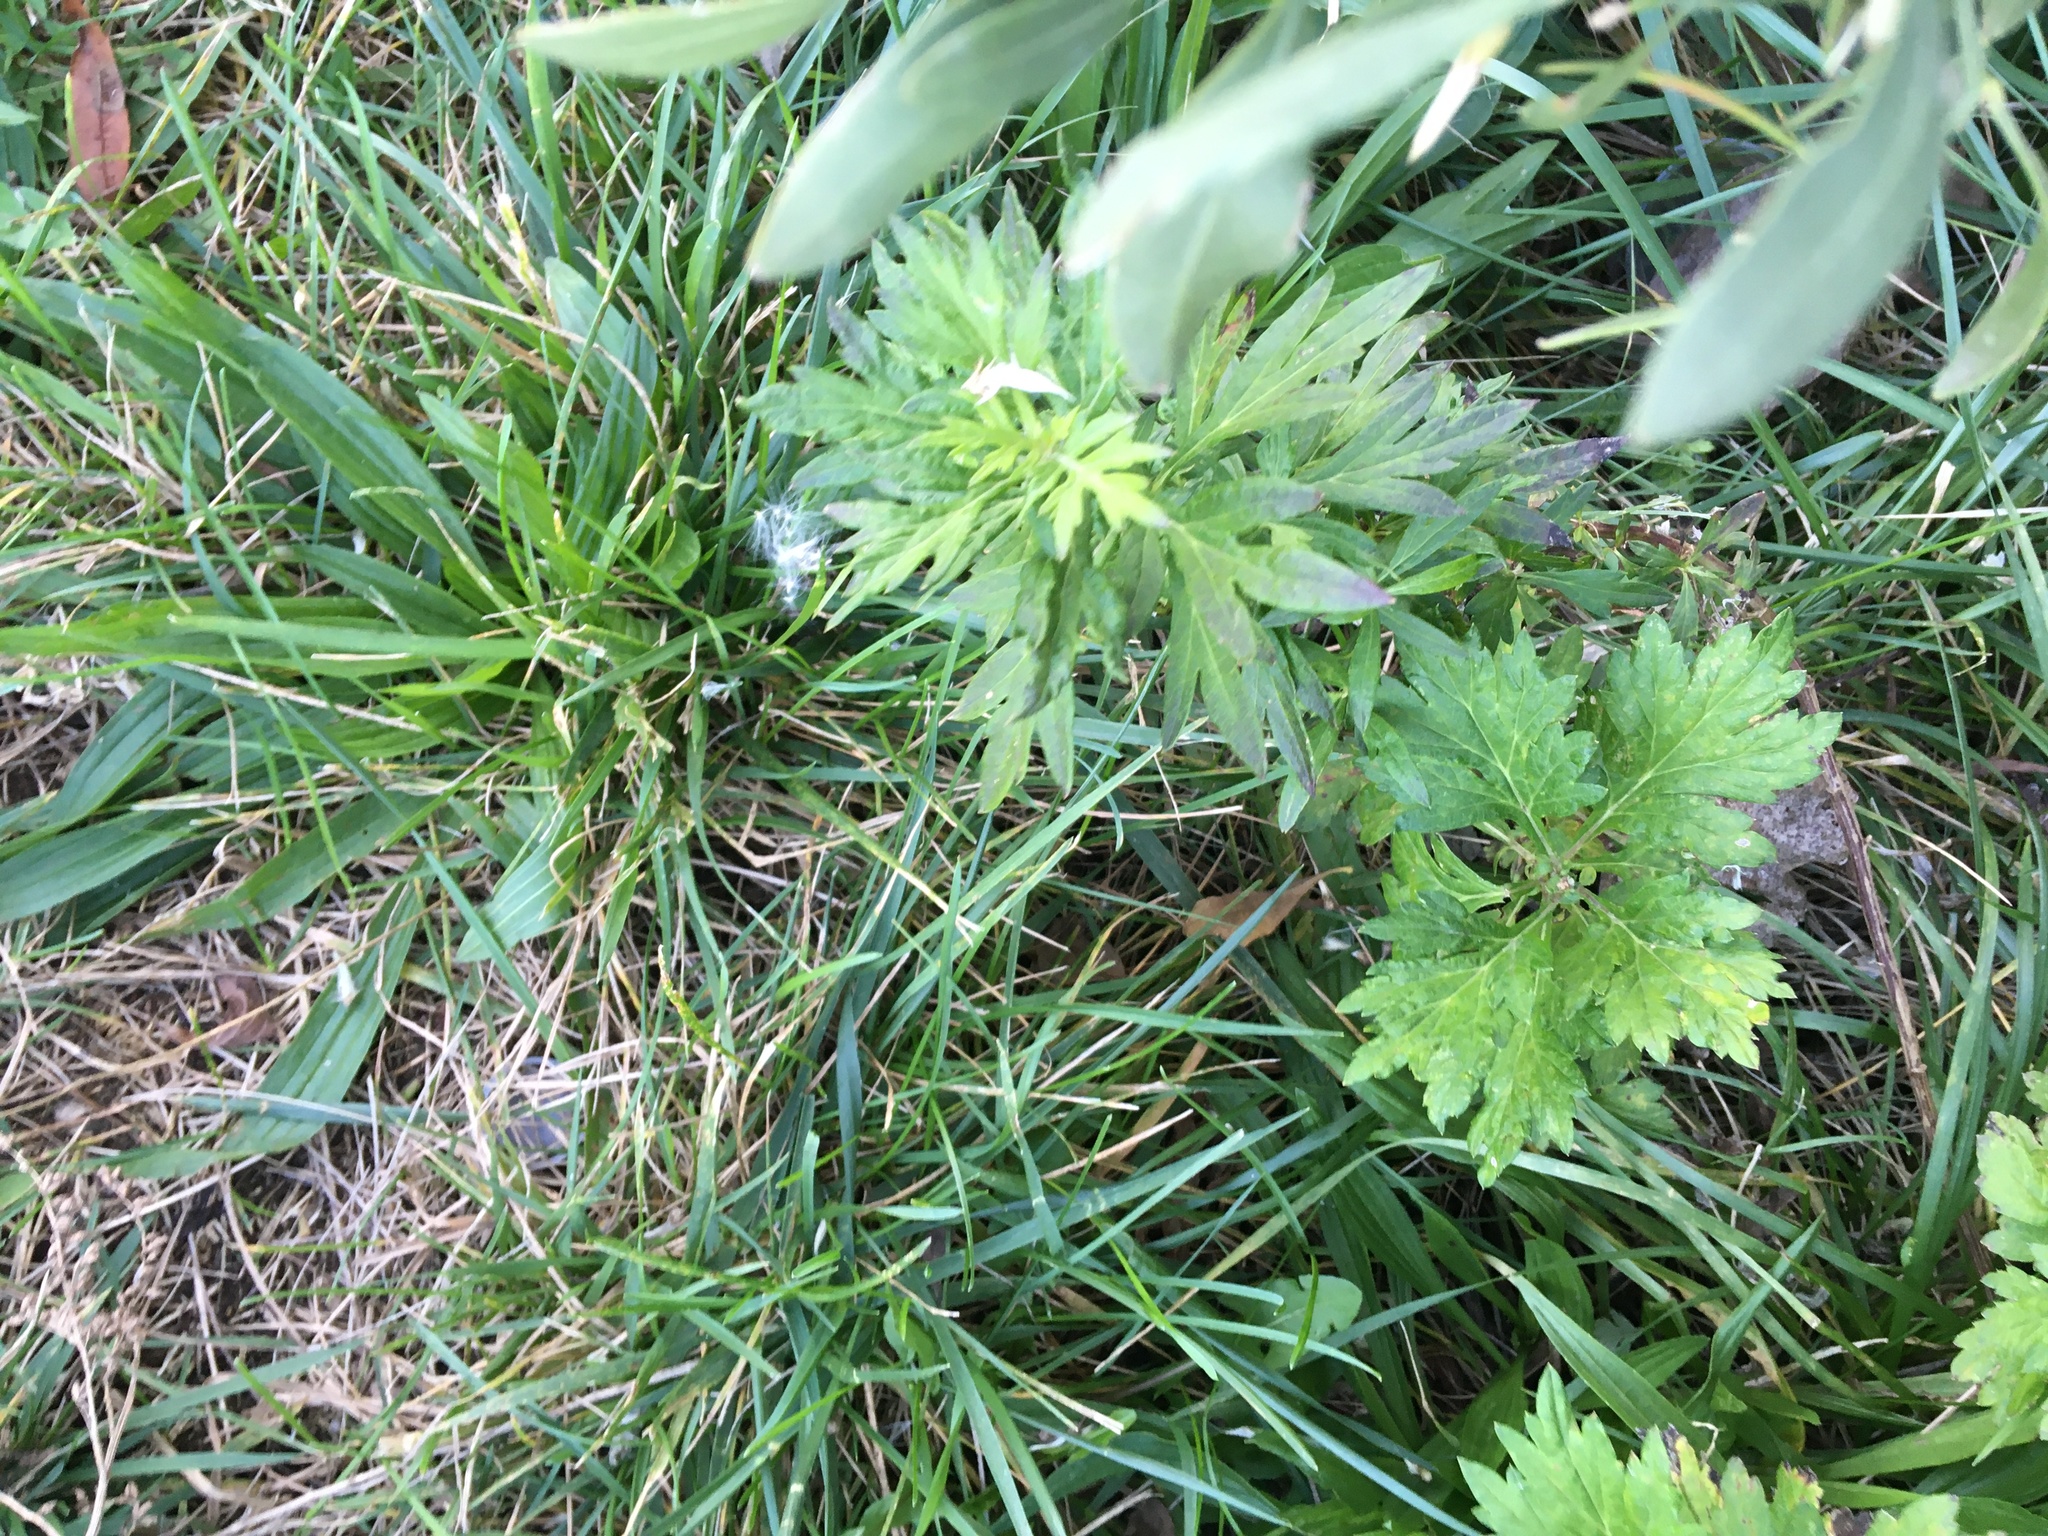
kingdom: Plantae
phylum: Tracheophyta
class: Magnoliopsida
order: Asterales
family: Asteraceae
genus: Artemisia
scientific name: Artemisia vulgaris
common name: Mugwort
